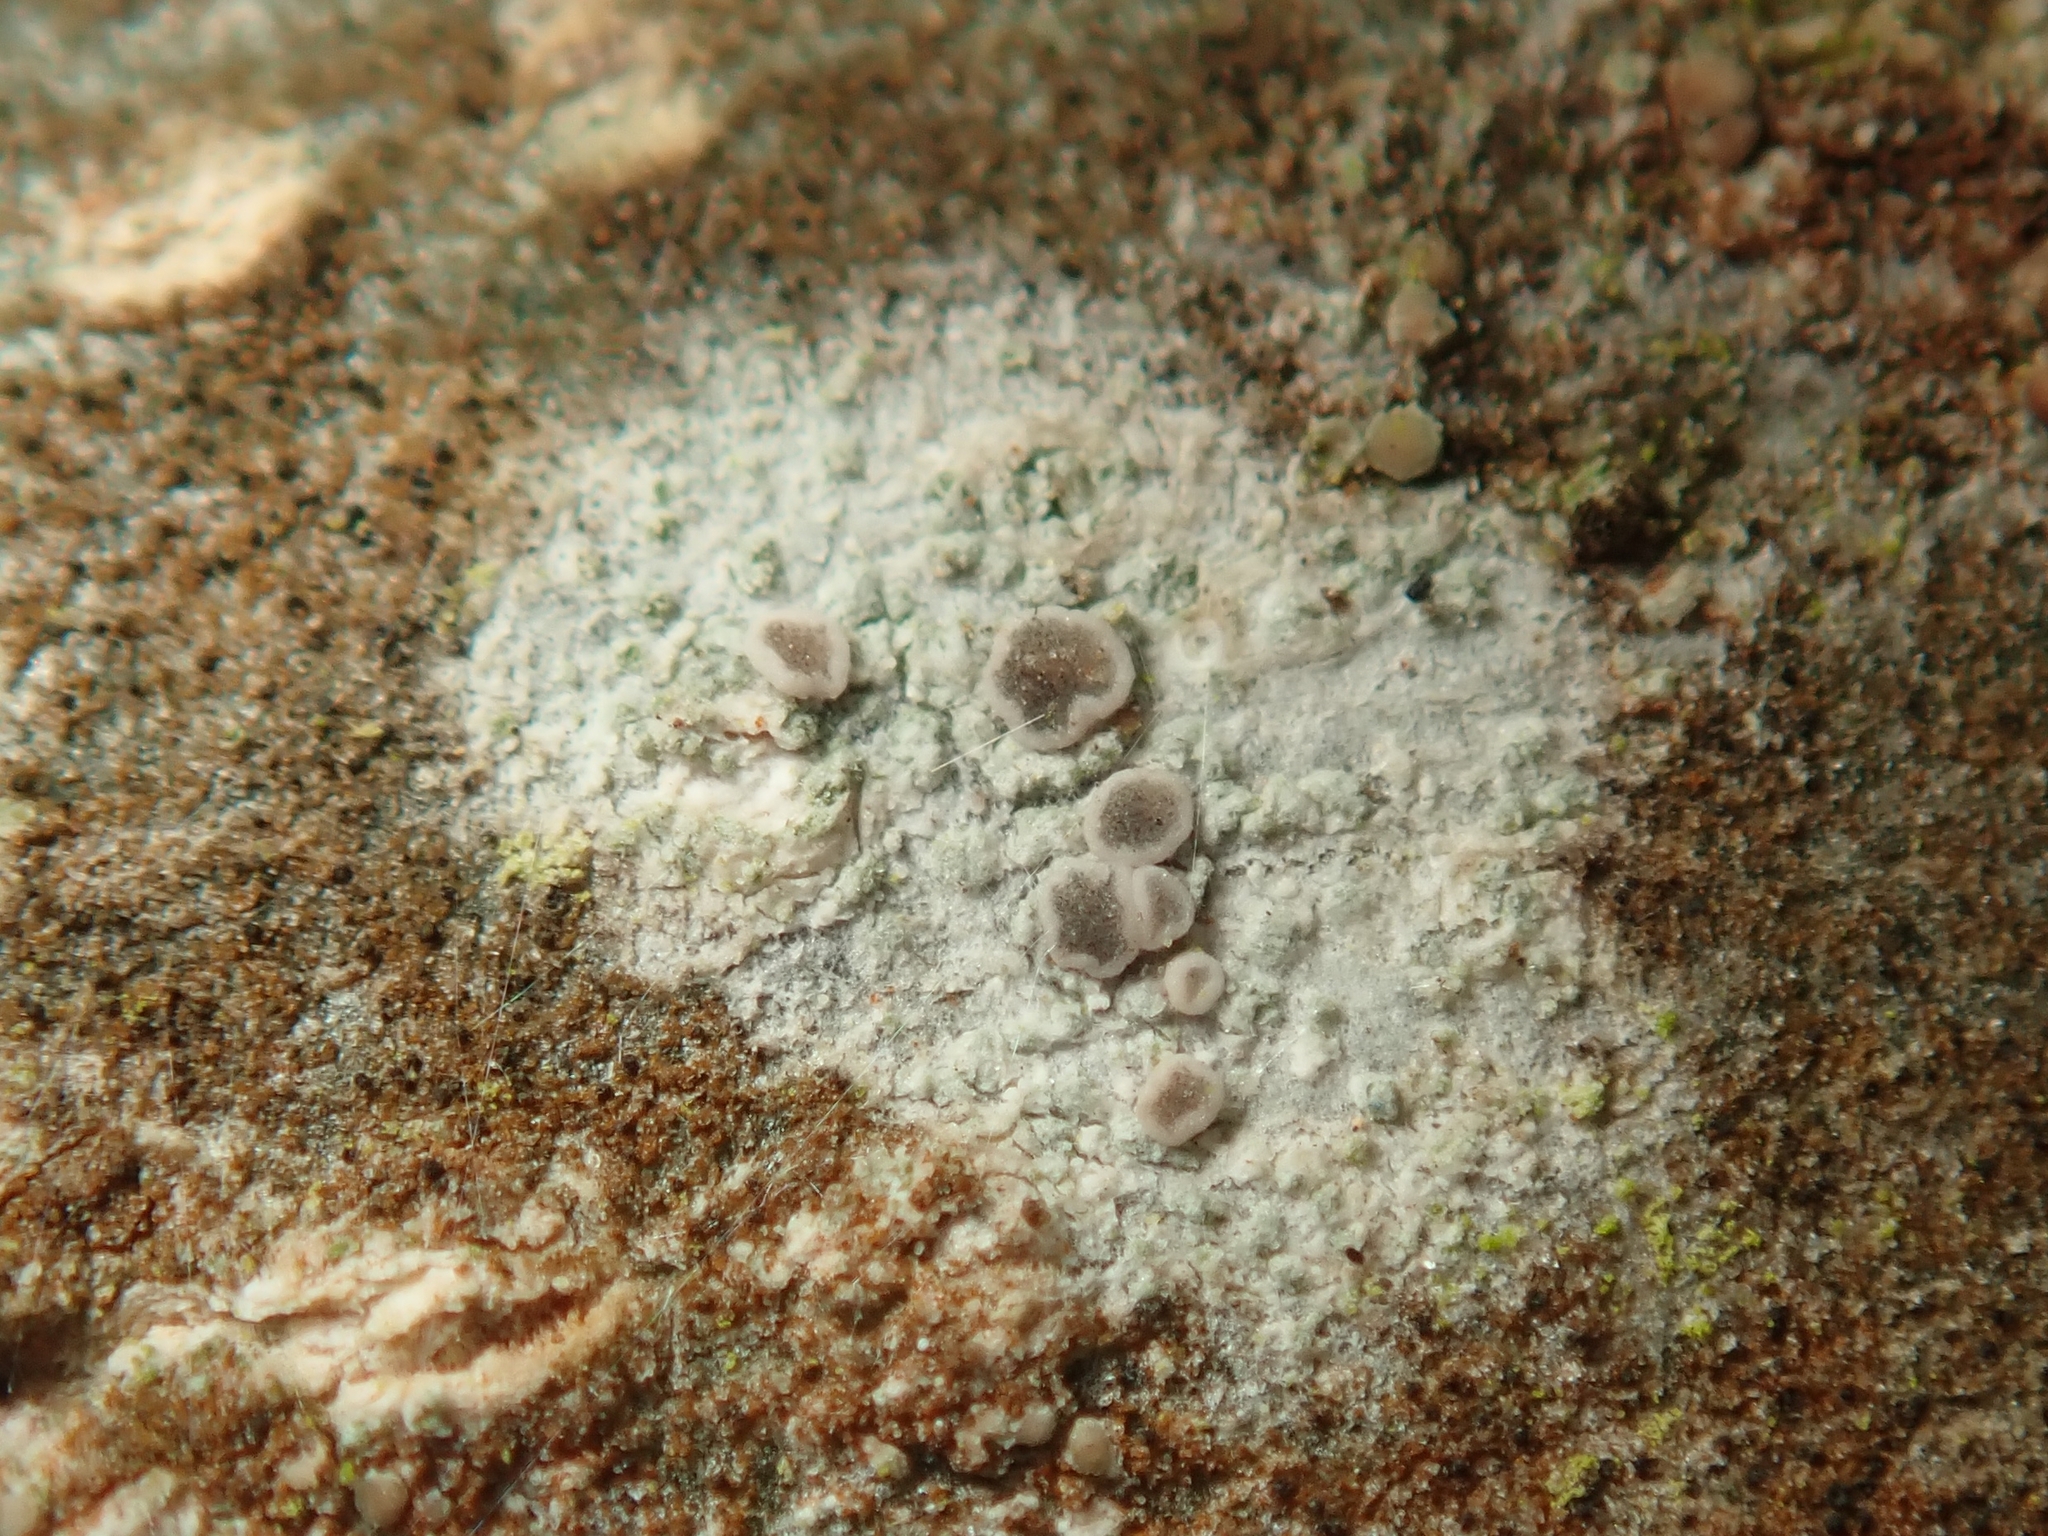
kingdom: Fungi
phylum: Ascomycota
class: Lecanoromycetes
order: Lecanorales
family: Ramalinaceae
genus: Lecania
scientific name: Lecania naegelii
